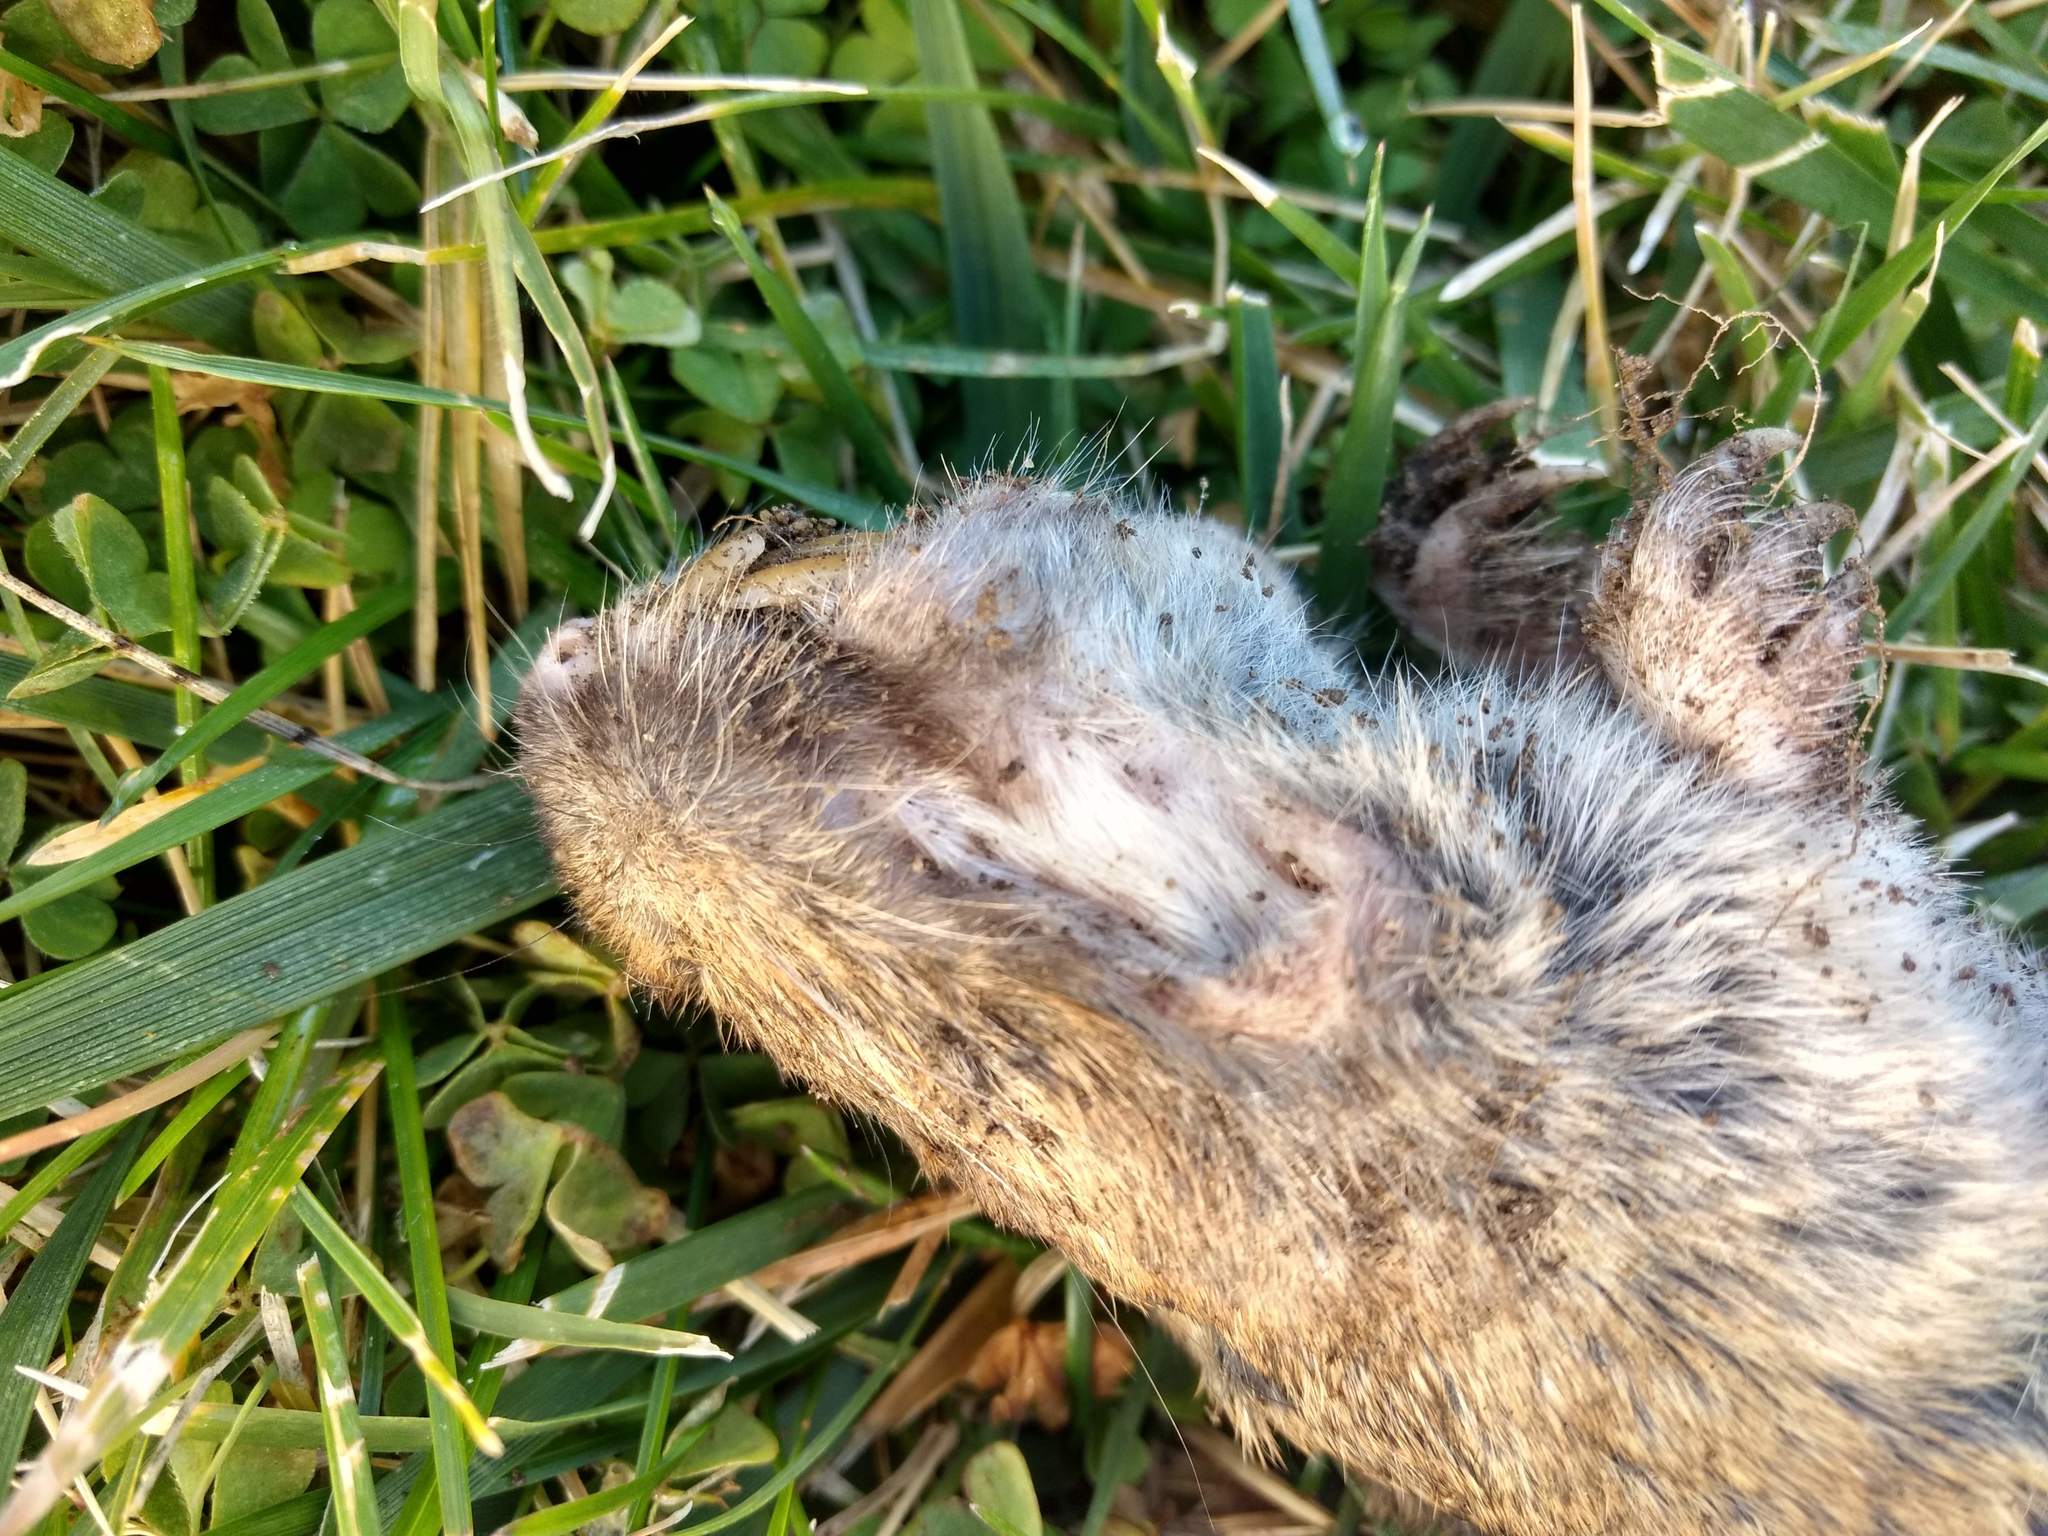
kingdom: Animalia
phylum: Chordata
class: Mammalia
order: Rodentia
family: Geomyidae
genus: Thomomys
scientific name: Thomomys bottae
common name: Botta's pocket gopher
